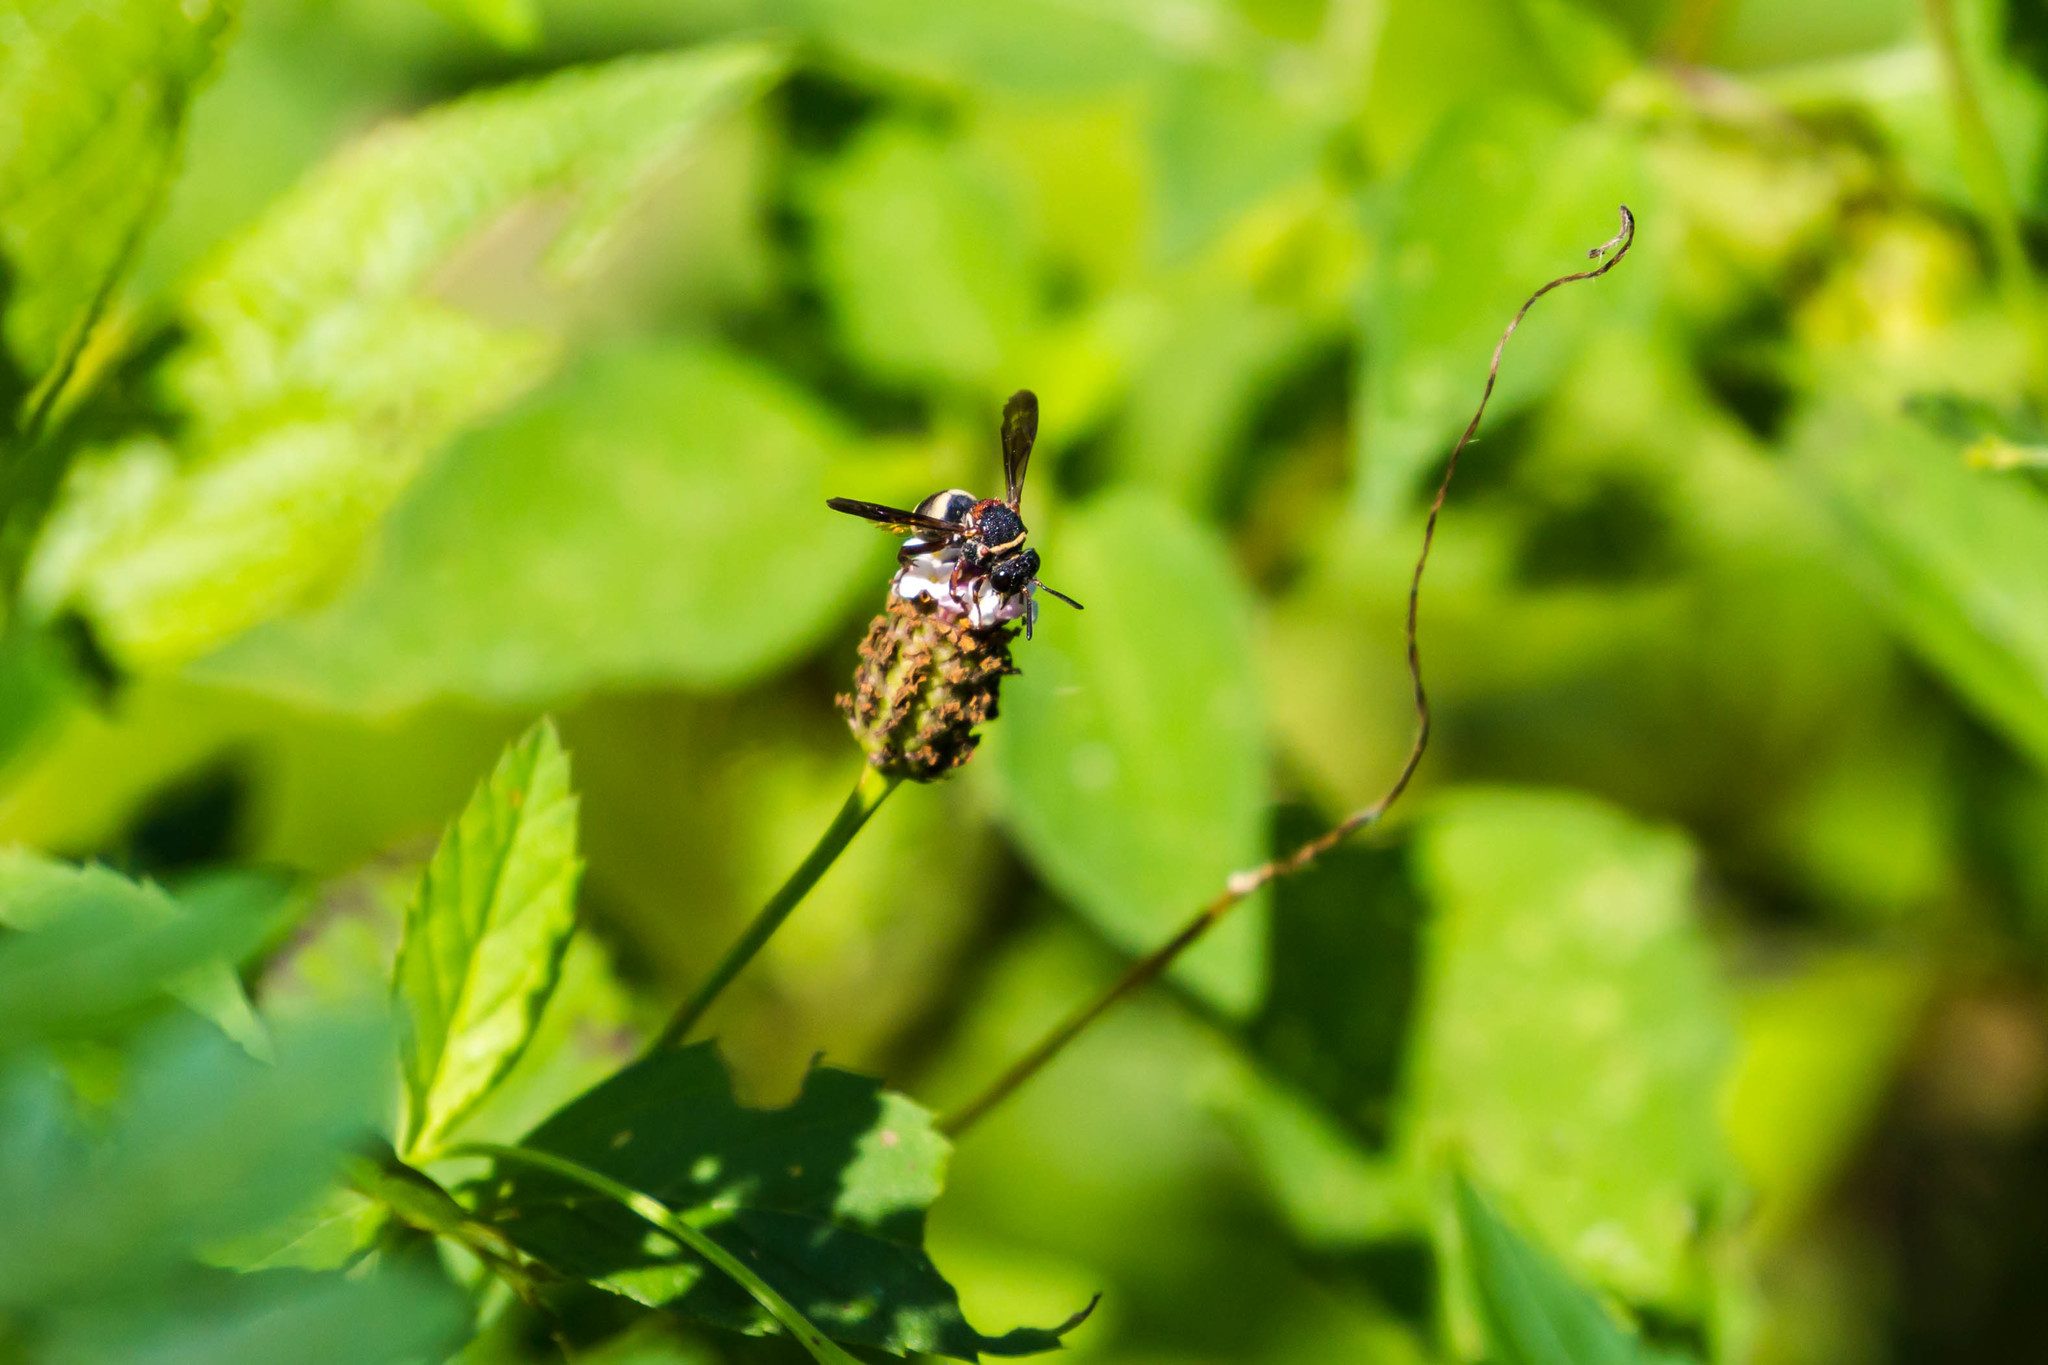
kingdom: Animalia
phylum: Arthropoda
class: Insecta
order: Hymenoptera
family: Apidae
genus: Epeolus
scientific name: Epeolus bifasciatus
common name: Two-banded cellophane-cuckoo
